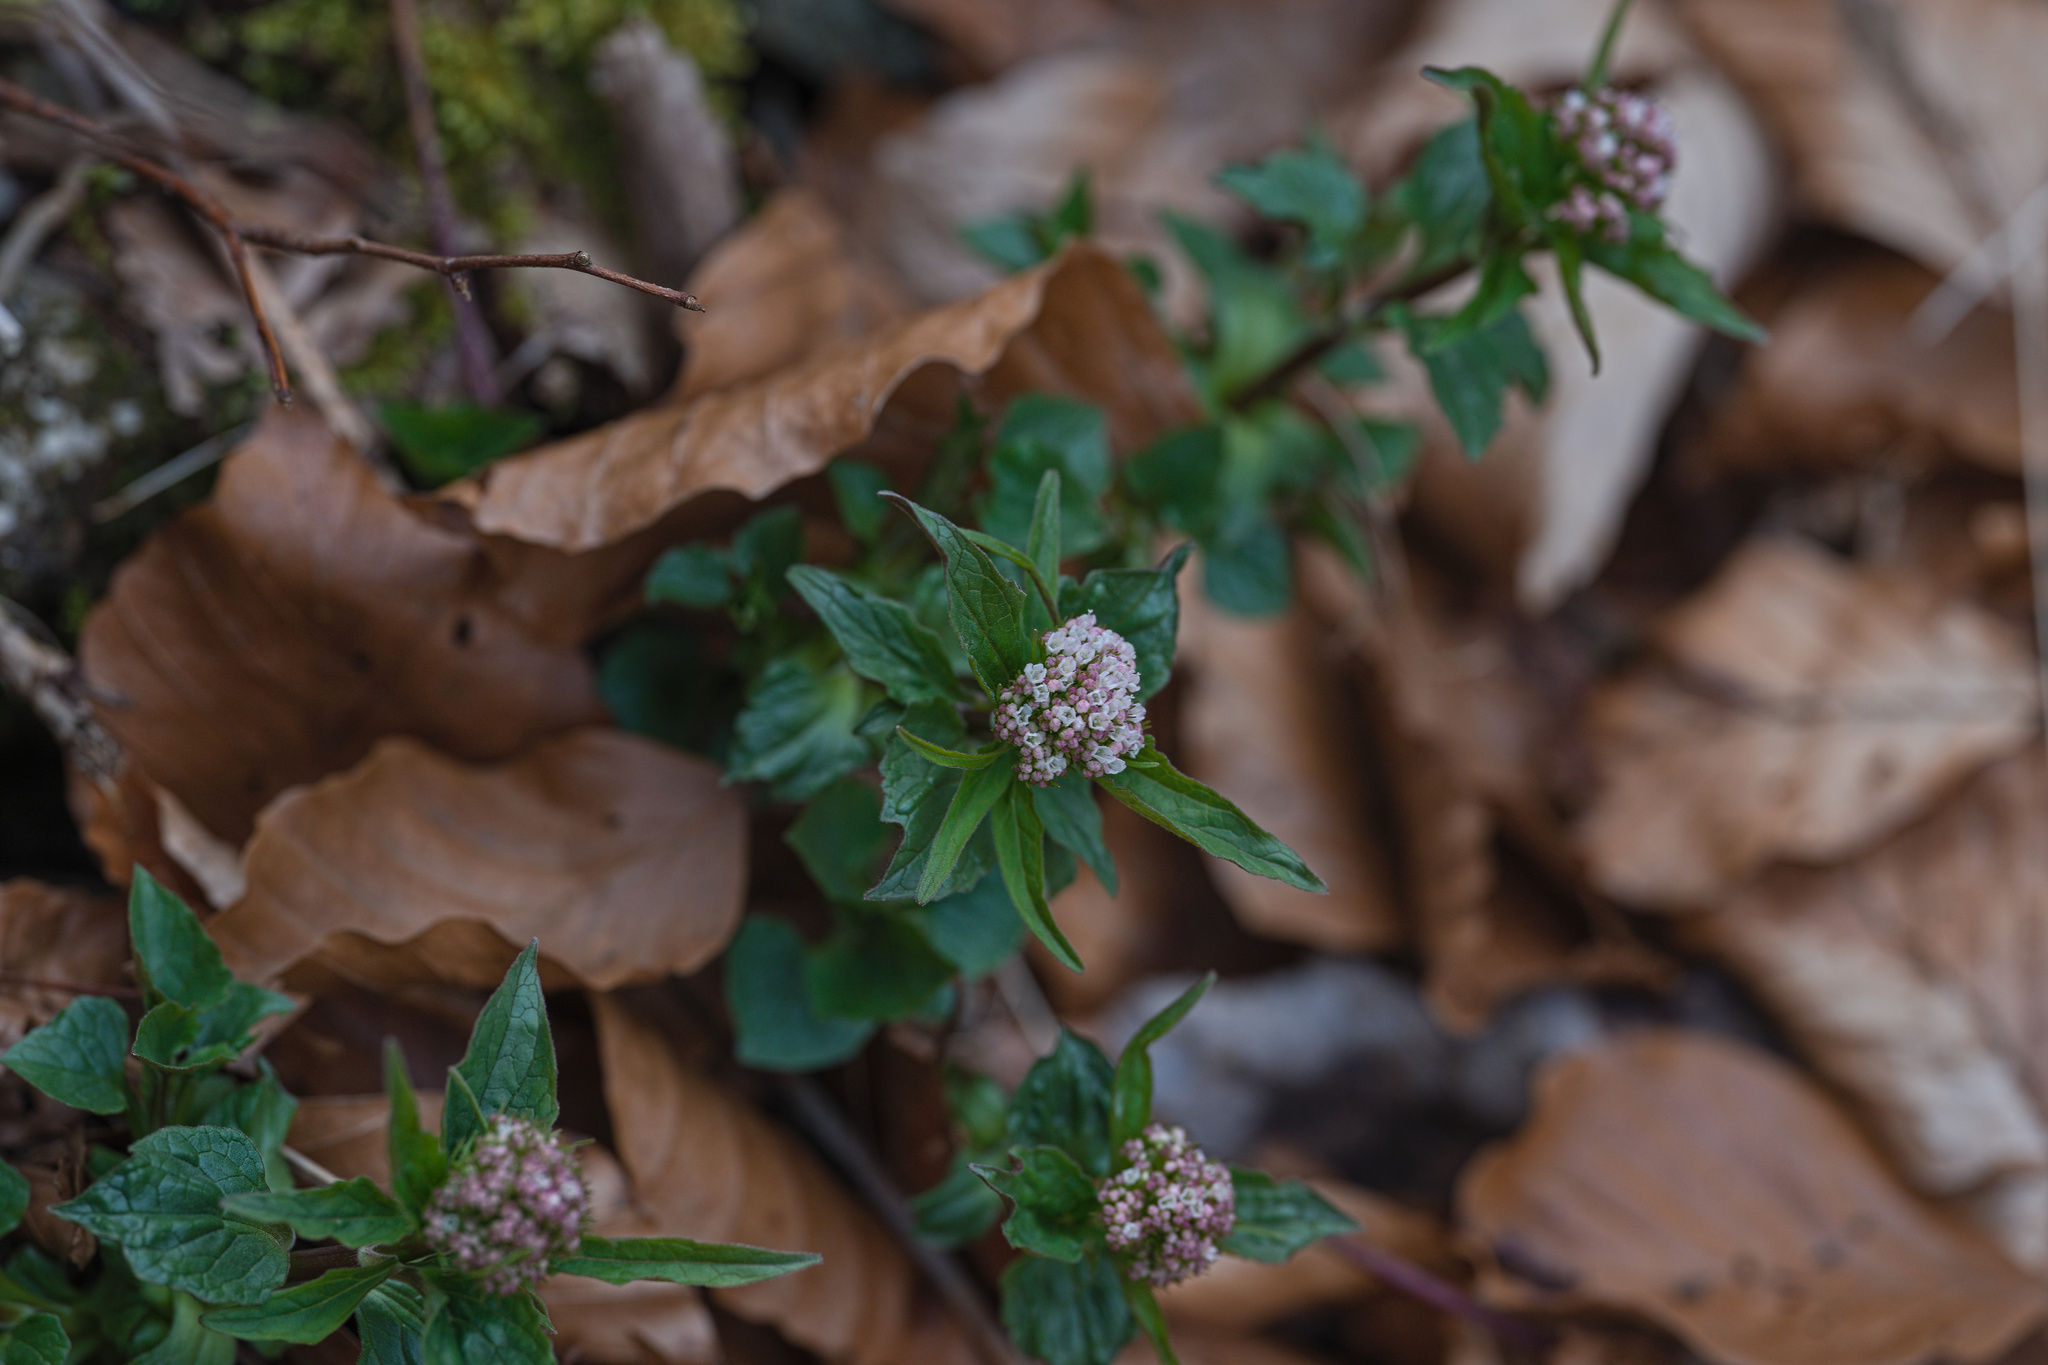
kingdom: Plantae
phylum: Tracheophyta
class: Magnoliopsida
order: Dipsacales
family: Caprifoliaceae
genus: Valeriana
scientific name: Valeriana tripteris
